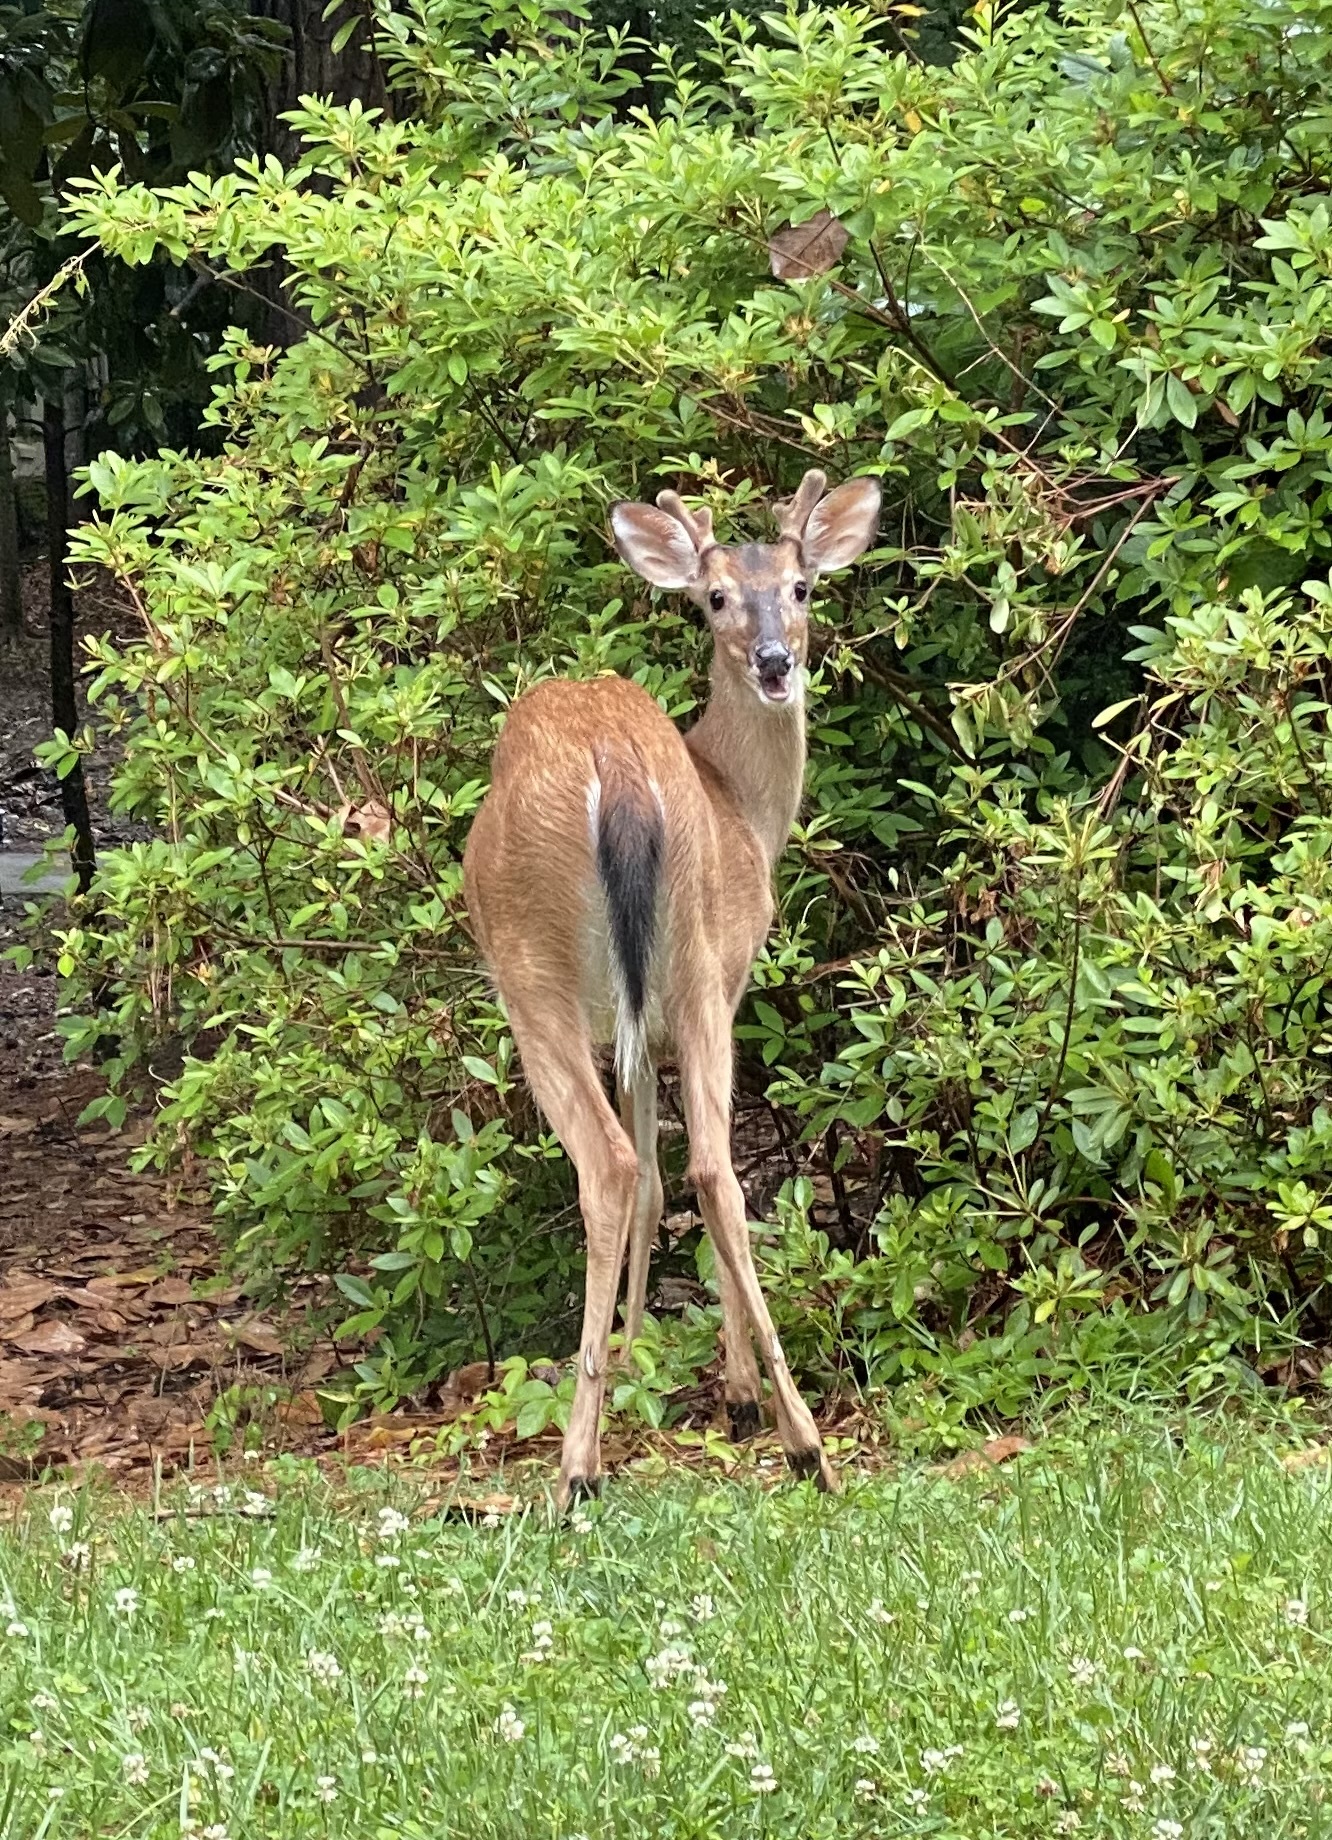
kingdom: Animalia
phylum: Chordata
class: Mammalia
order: Artiodactyla
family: Cervidae
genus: Odocoileus
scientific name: Odocoileus virginianus
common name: White-tailed deer
